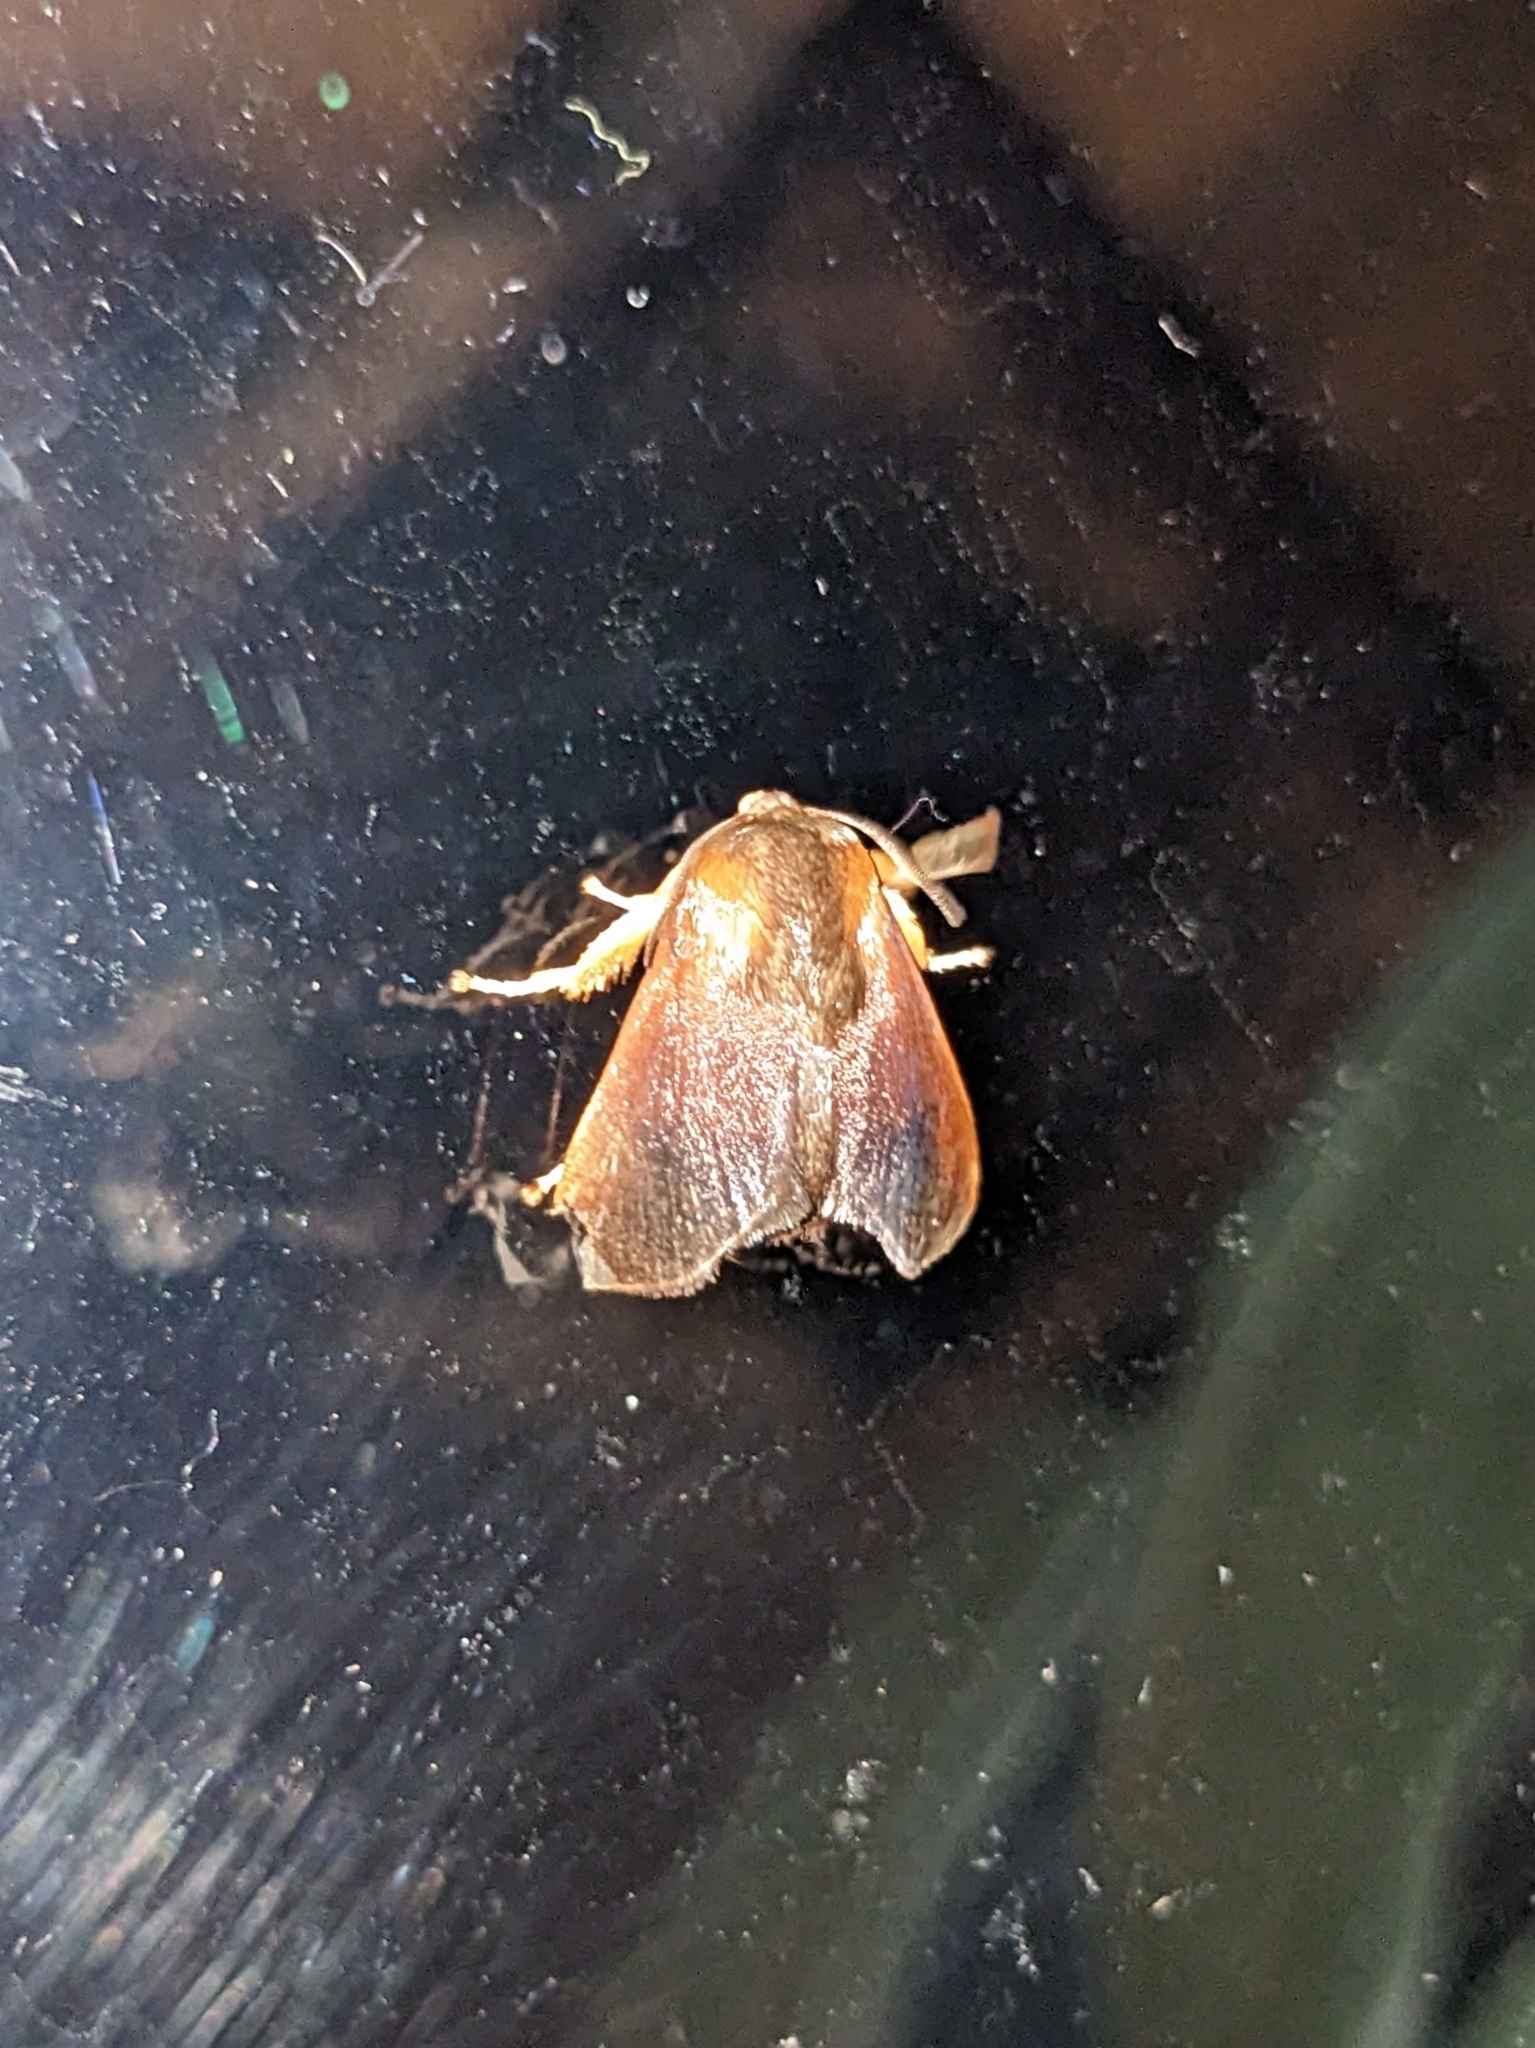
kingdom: Animalia
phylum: Arthropoda
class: Insecta
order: Lepidoptera
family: Limacodidae
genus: Isa
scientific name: Isa diana
